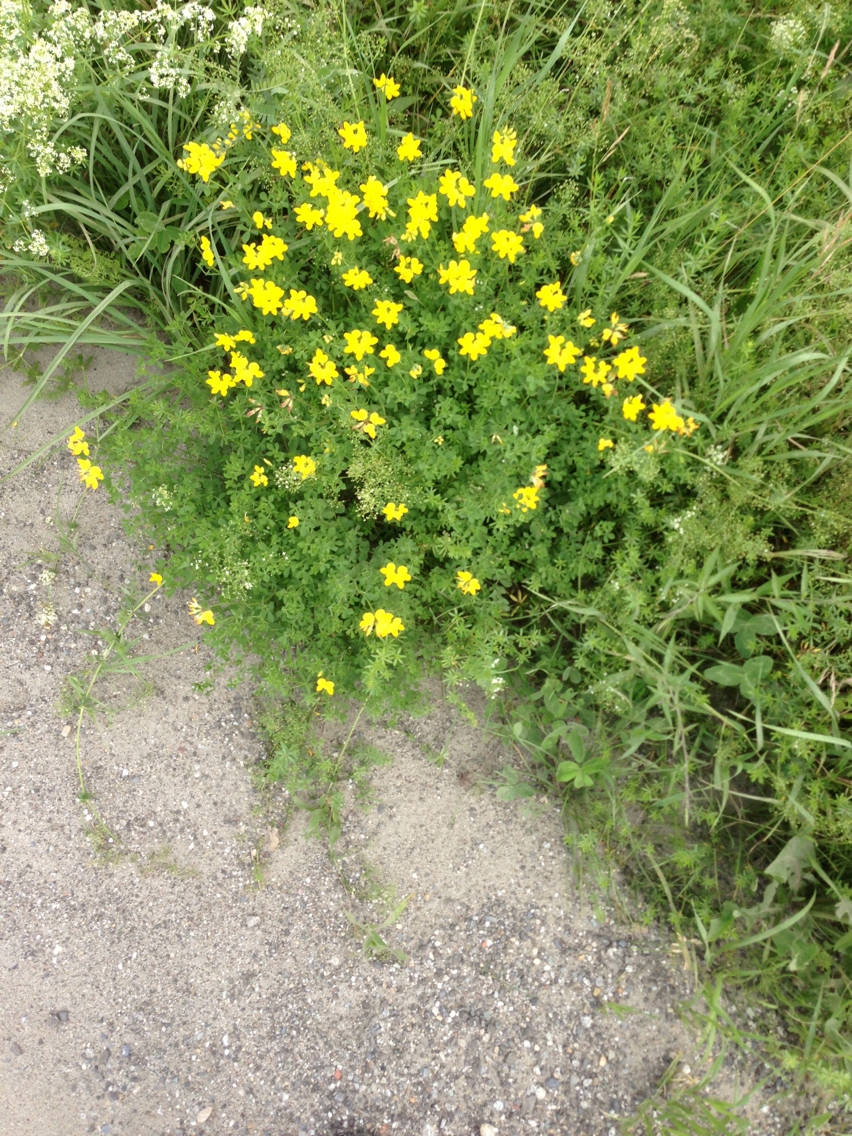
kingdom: Plantae
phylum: Tracheophyta
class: Magnoliopsida
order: Fabales
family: Fabaceae
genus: Lotus
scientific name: Lotus corniculatus
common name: Common bird's-foot-trefoil
